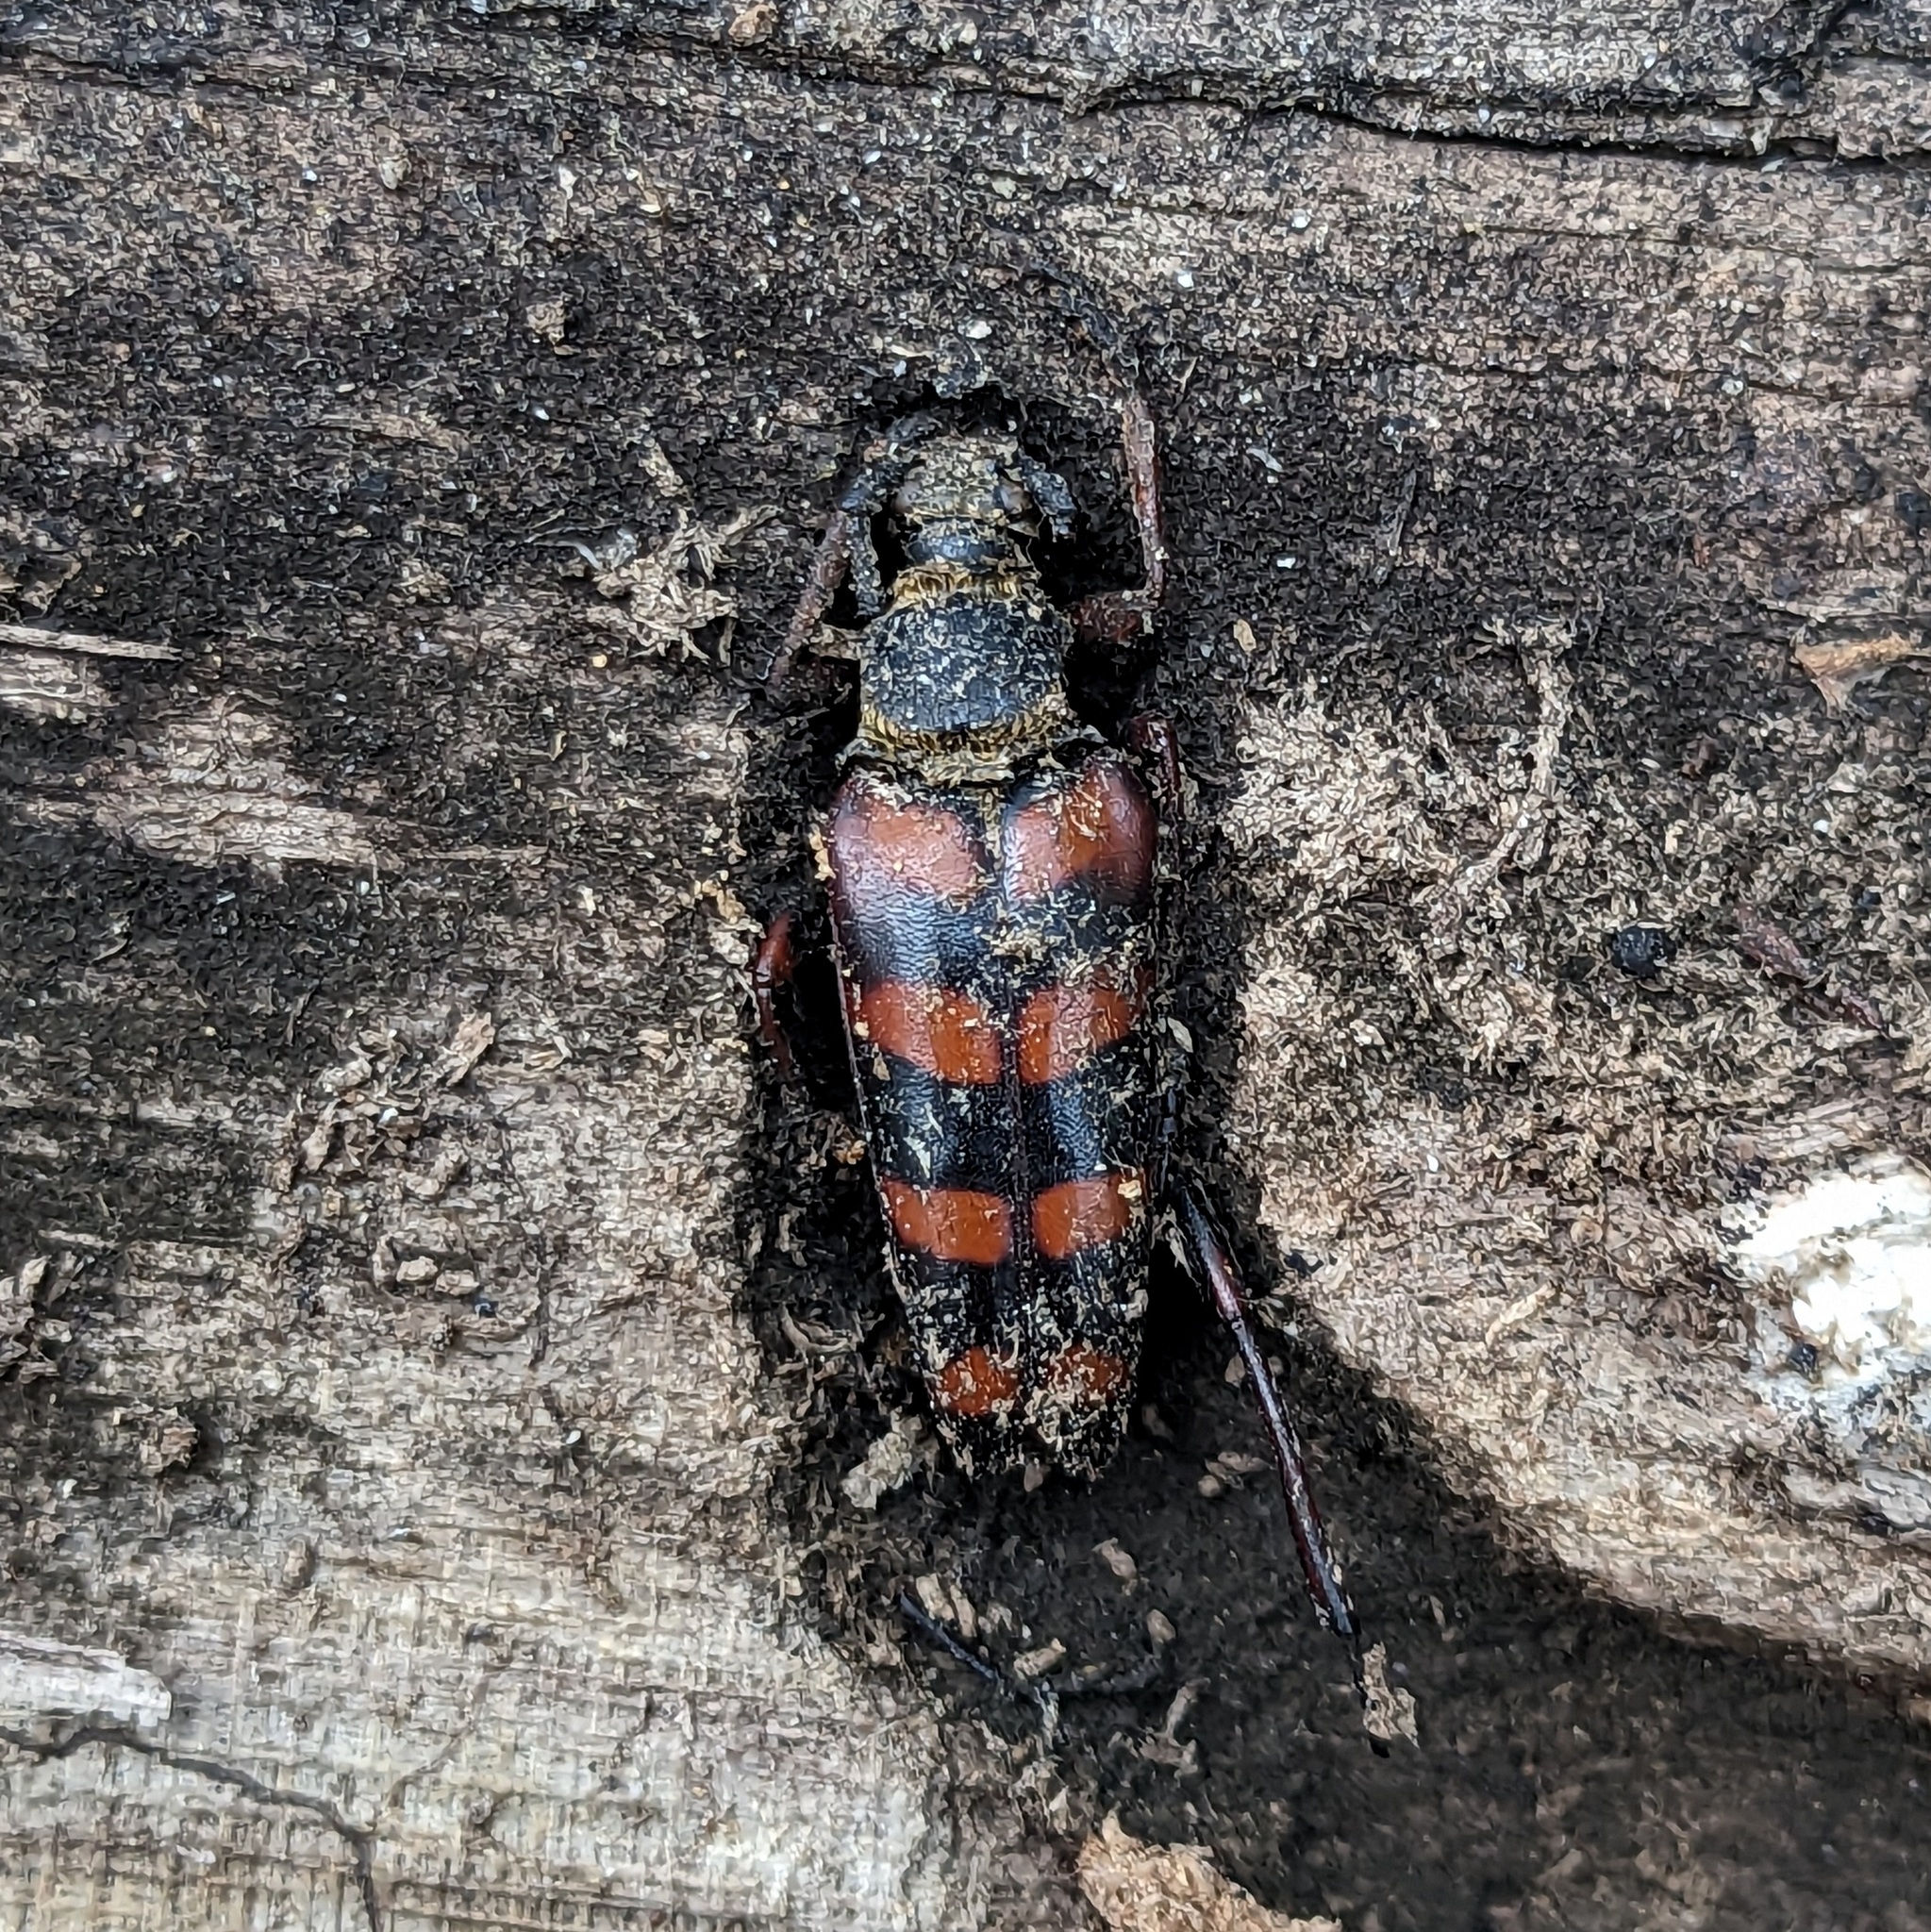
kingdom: Animalia
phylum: Arthropoda
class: Insecta
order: Coleoptera
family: Cerambycidae
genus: Leptura
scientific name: Leptura aurulenta
